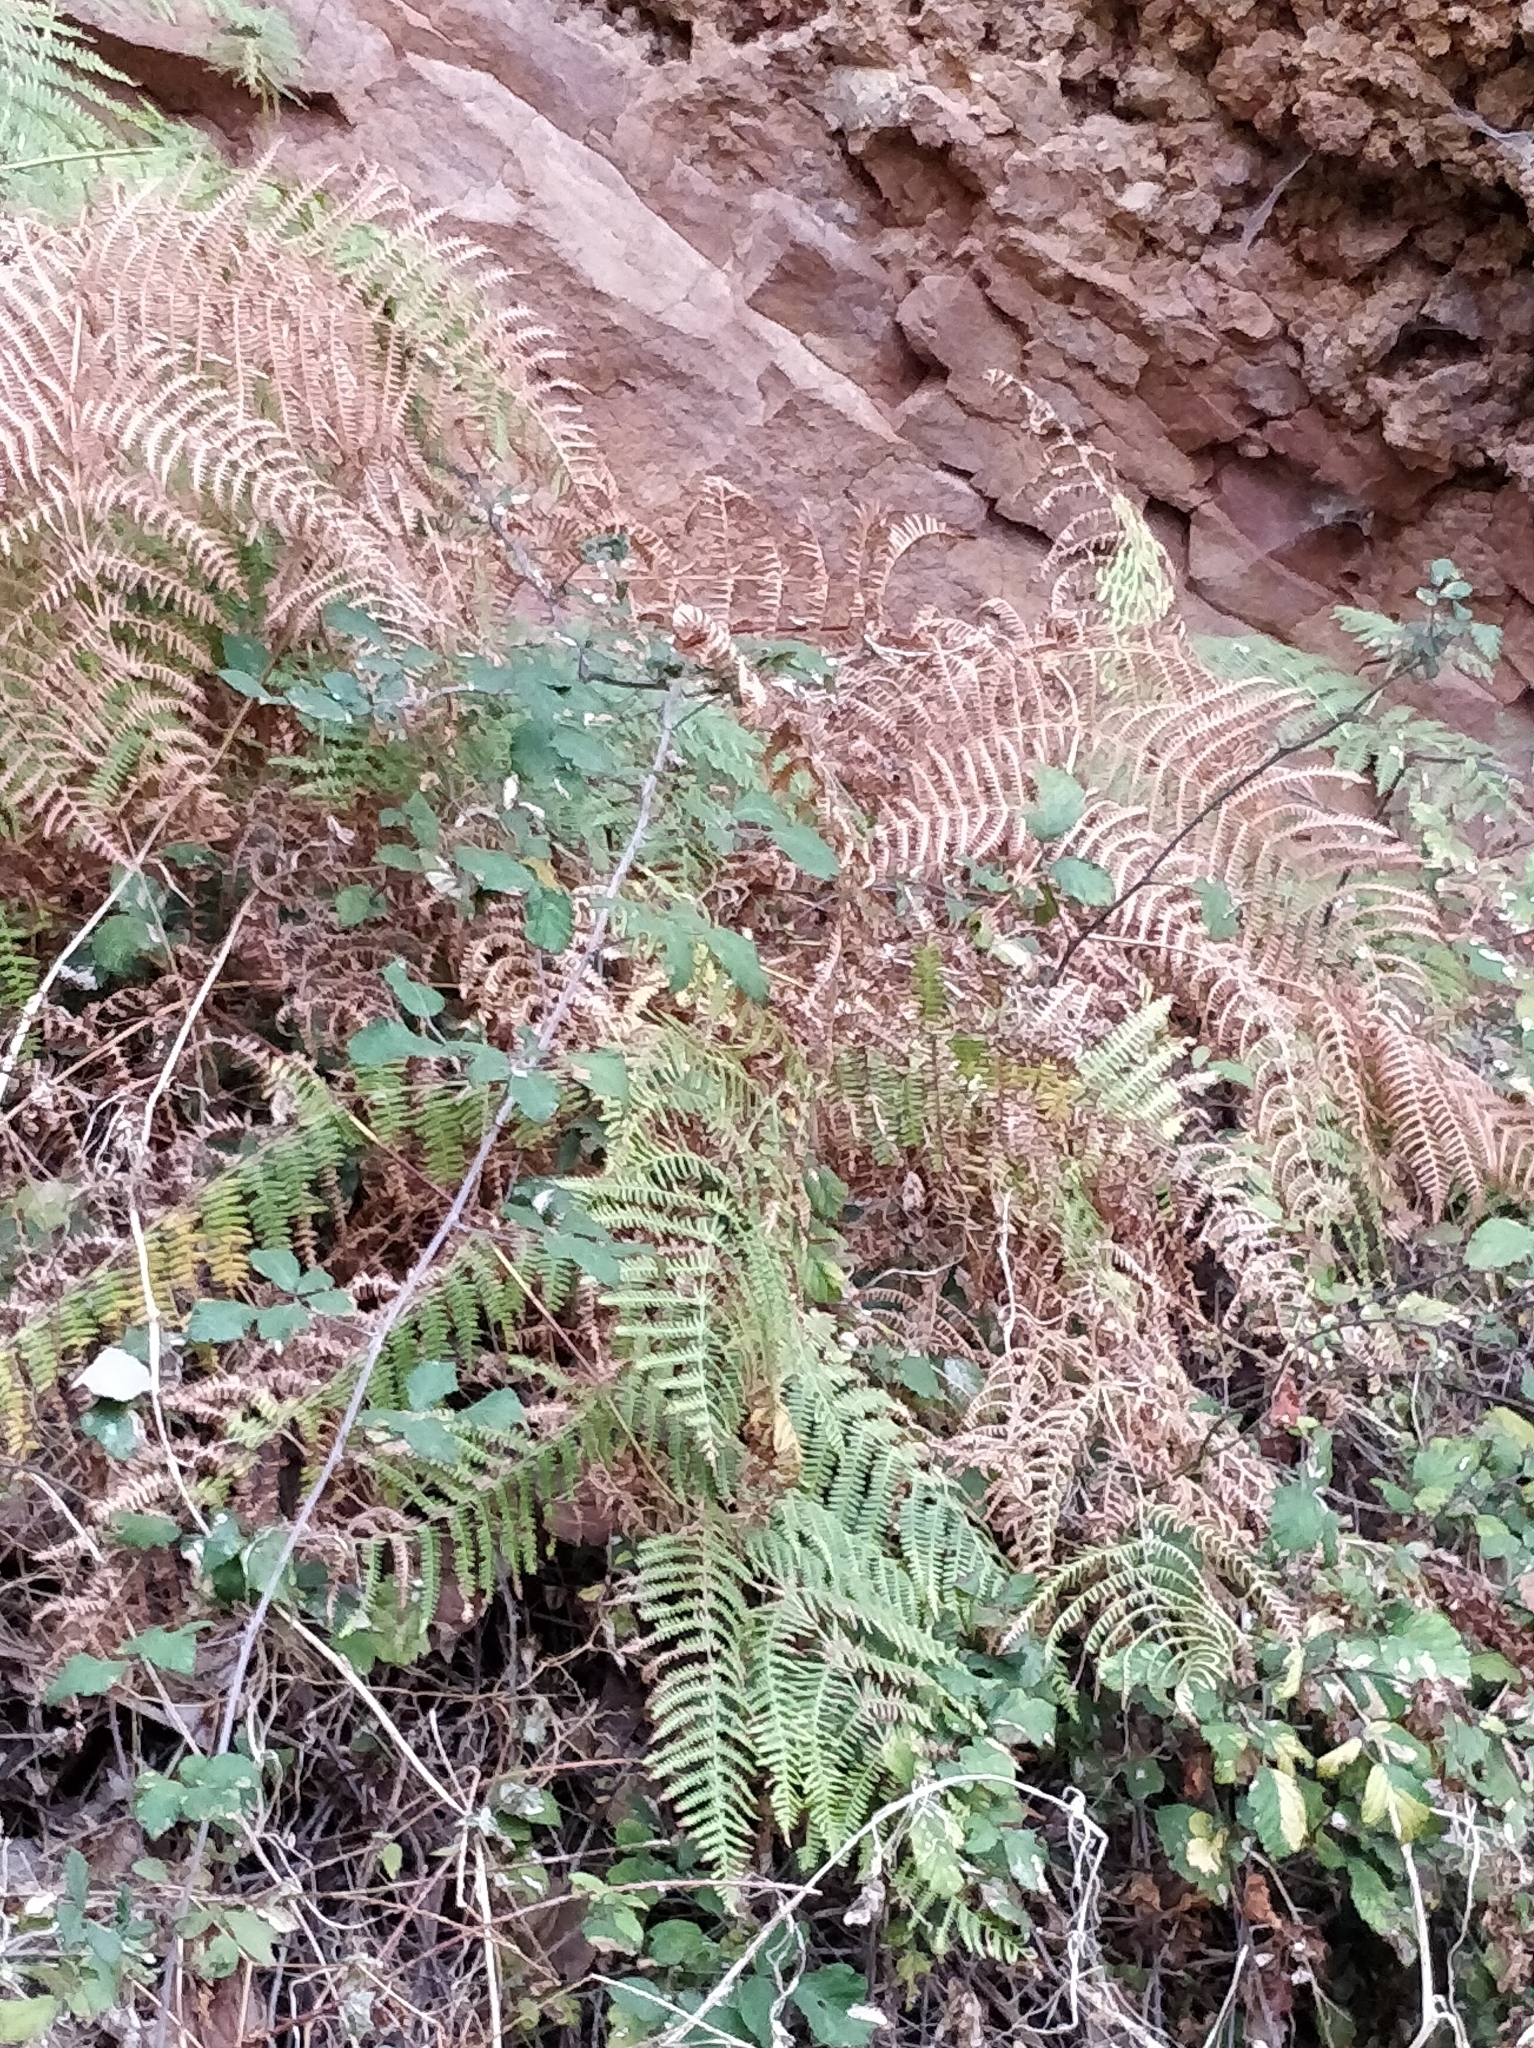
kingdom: Plantae
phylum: Tracheophyta
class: Polypodiopsida
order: Polypodiales
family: Dennstaedtiaceae
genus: Pteridium
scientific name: Pteridium aquilinum
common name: Bracken
